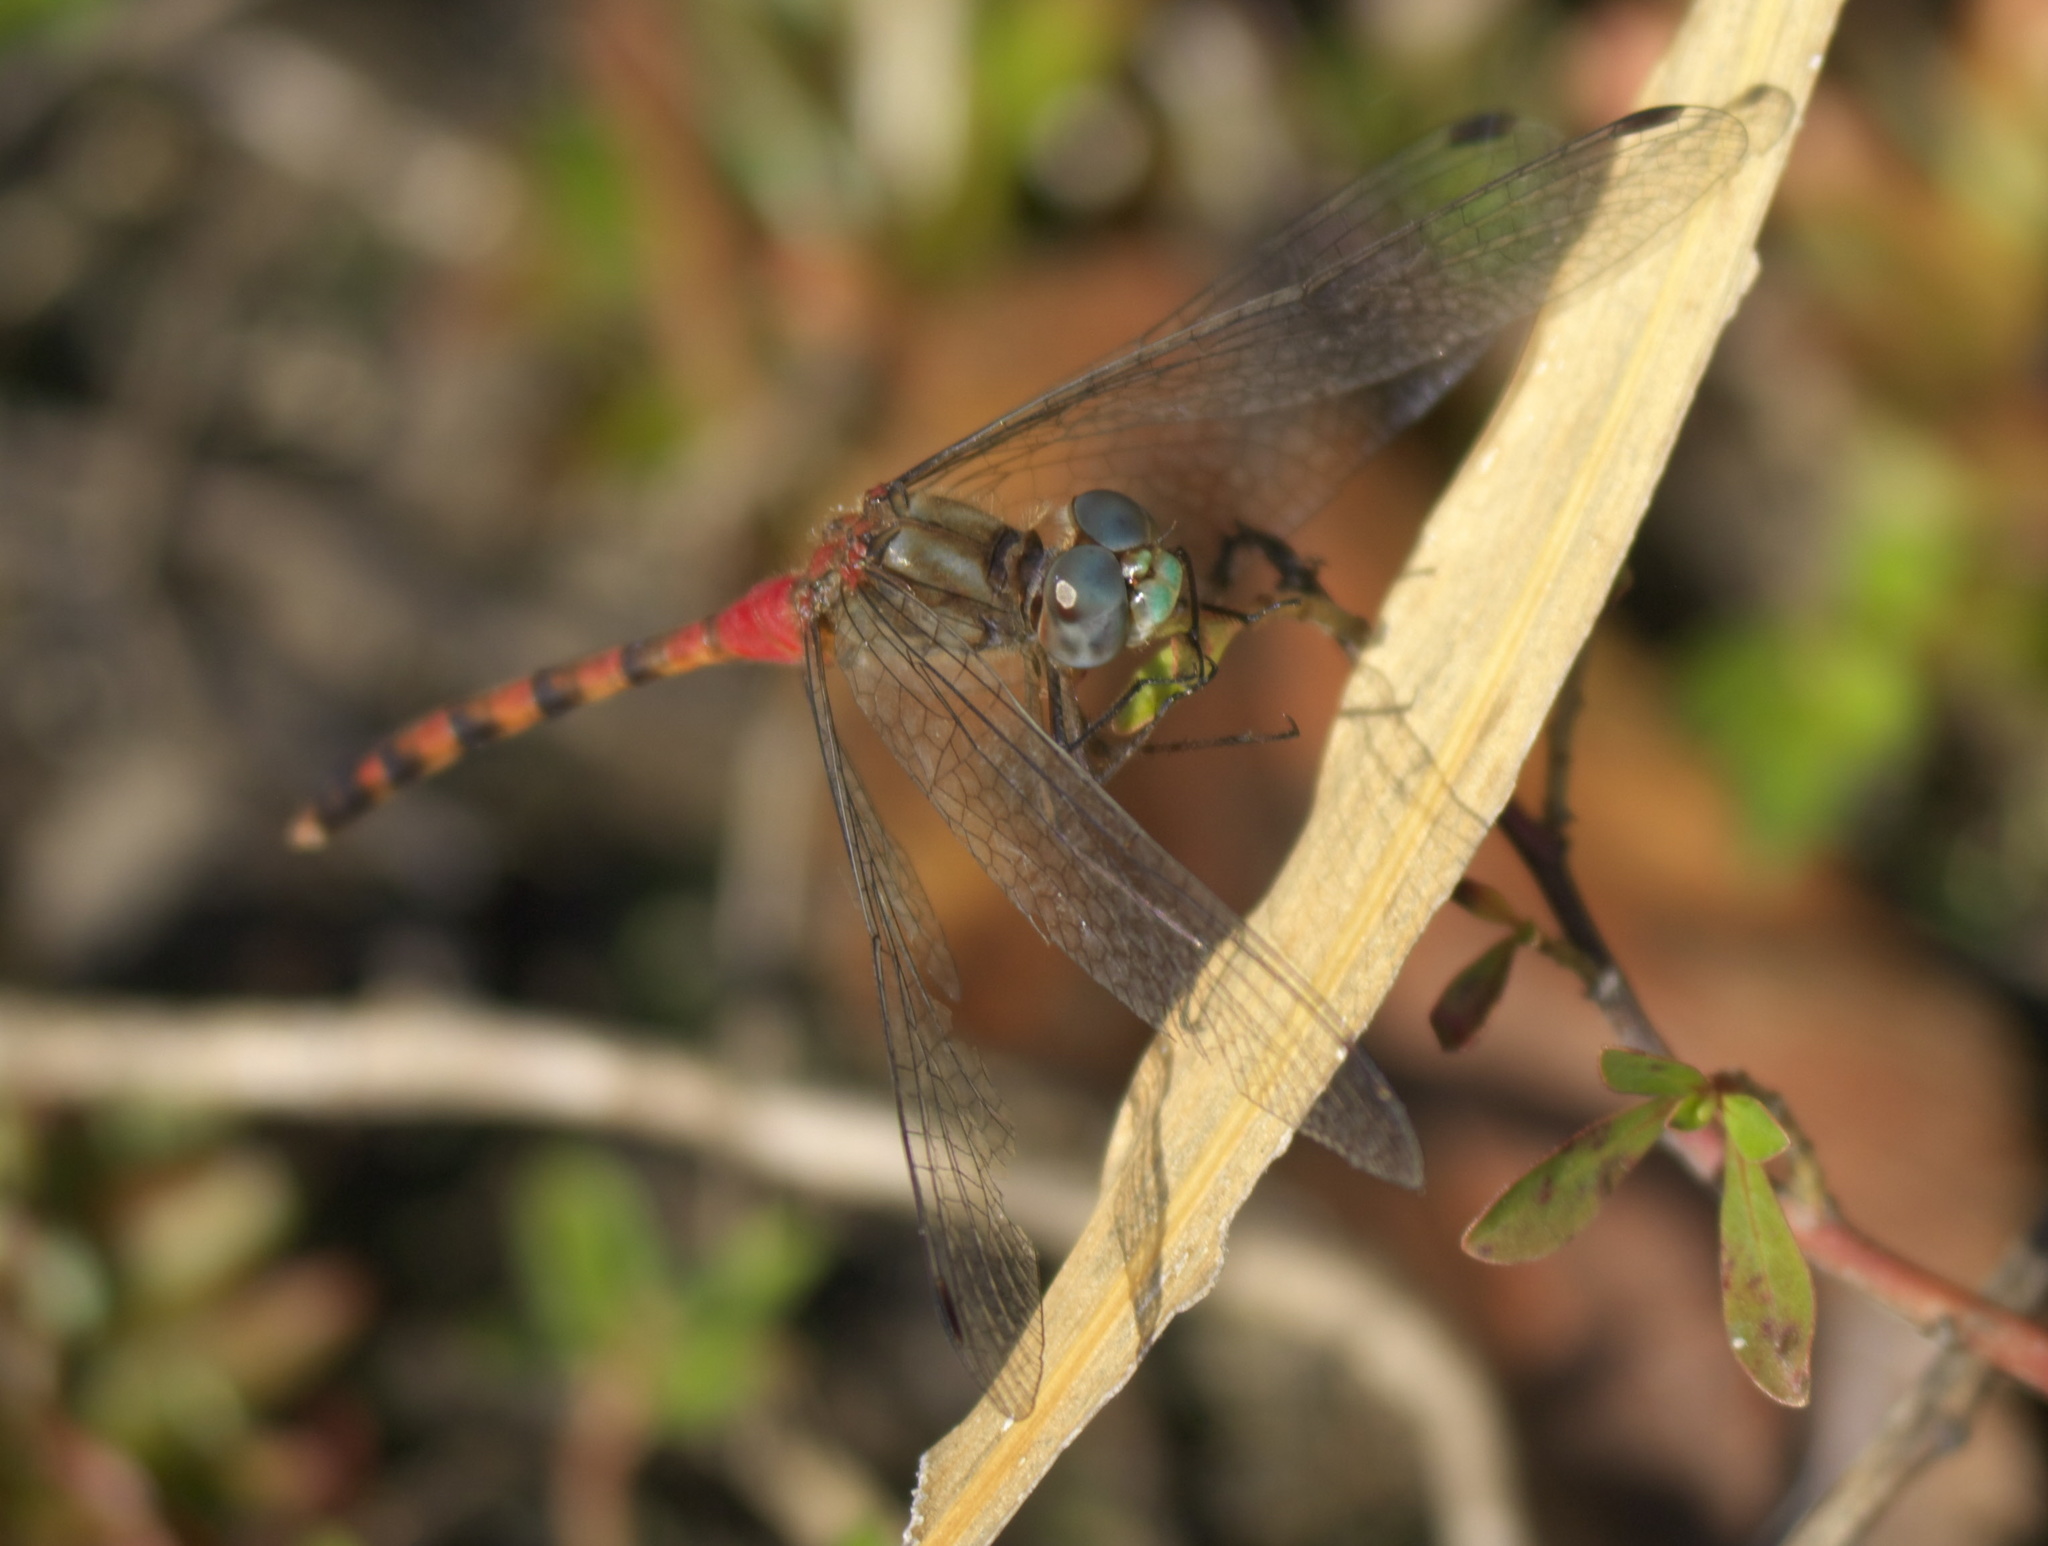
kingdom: Animalia
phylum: Arthropoda
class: Insecta
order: Odonata
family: Libellulidae
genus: Sympetrum
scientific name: Sympetrum ambiguum
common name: Blue-faced meadowhawk
